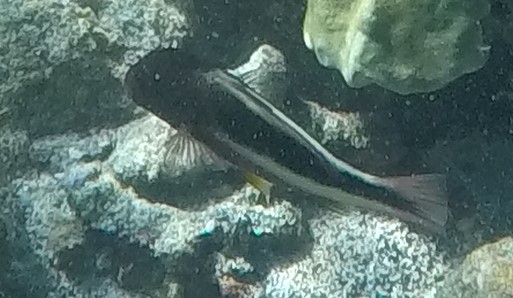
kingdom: Animalia
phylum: Chordata
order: Perciformes
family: Cirrhitidae
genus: Paracirrhites
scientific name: Paracirrhites forsteri
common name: Freckled hawkfish
